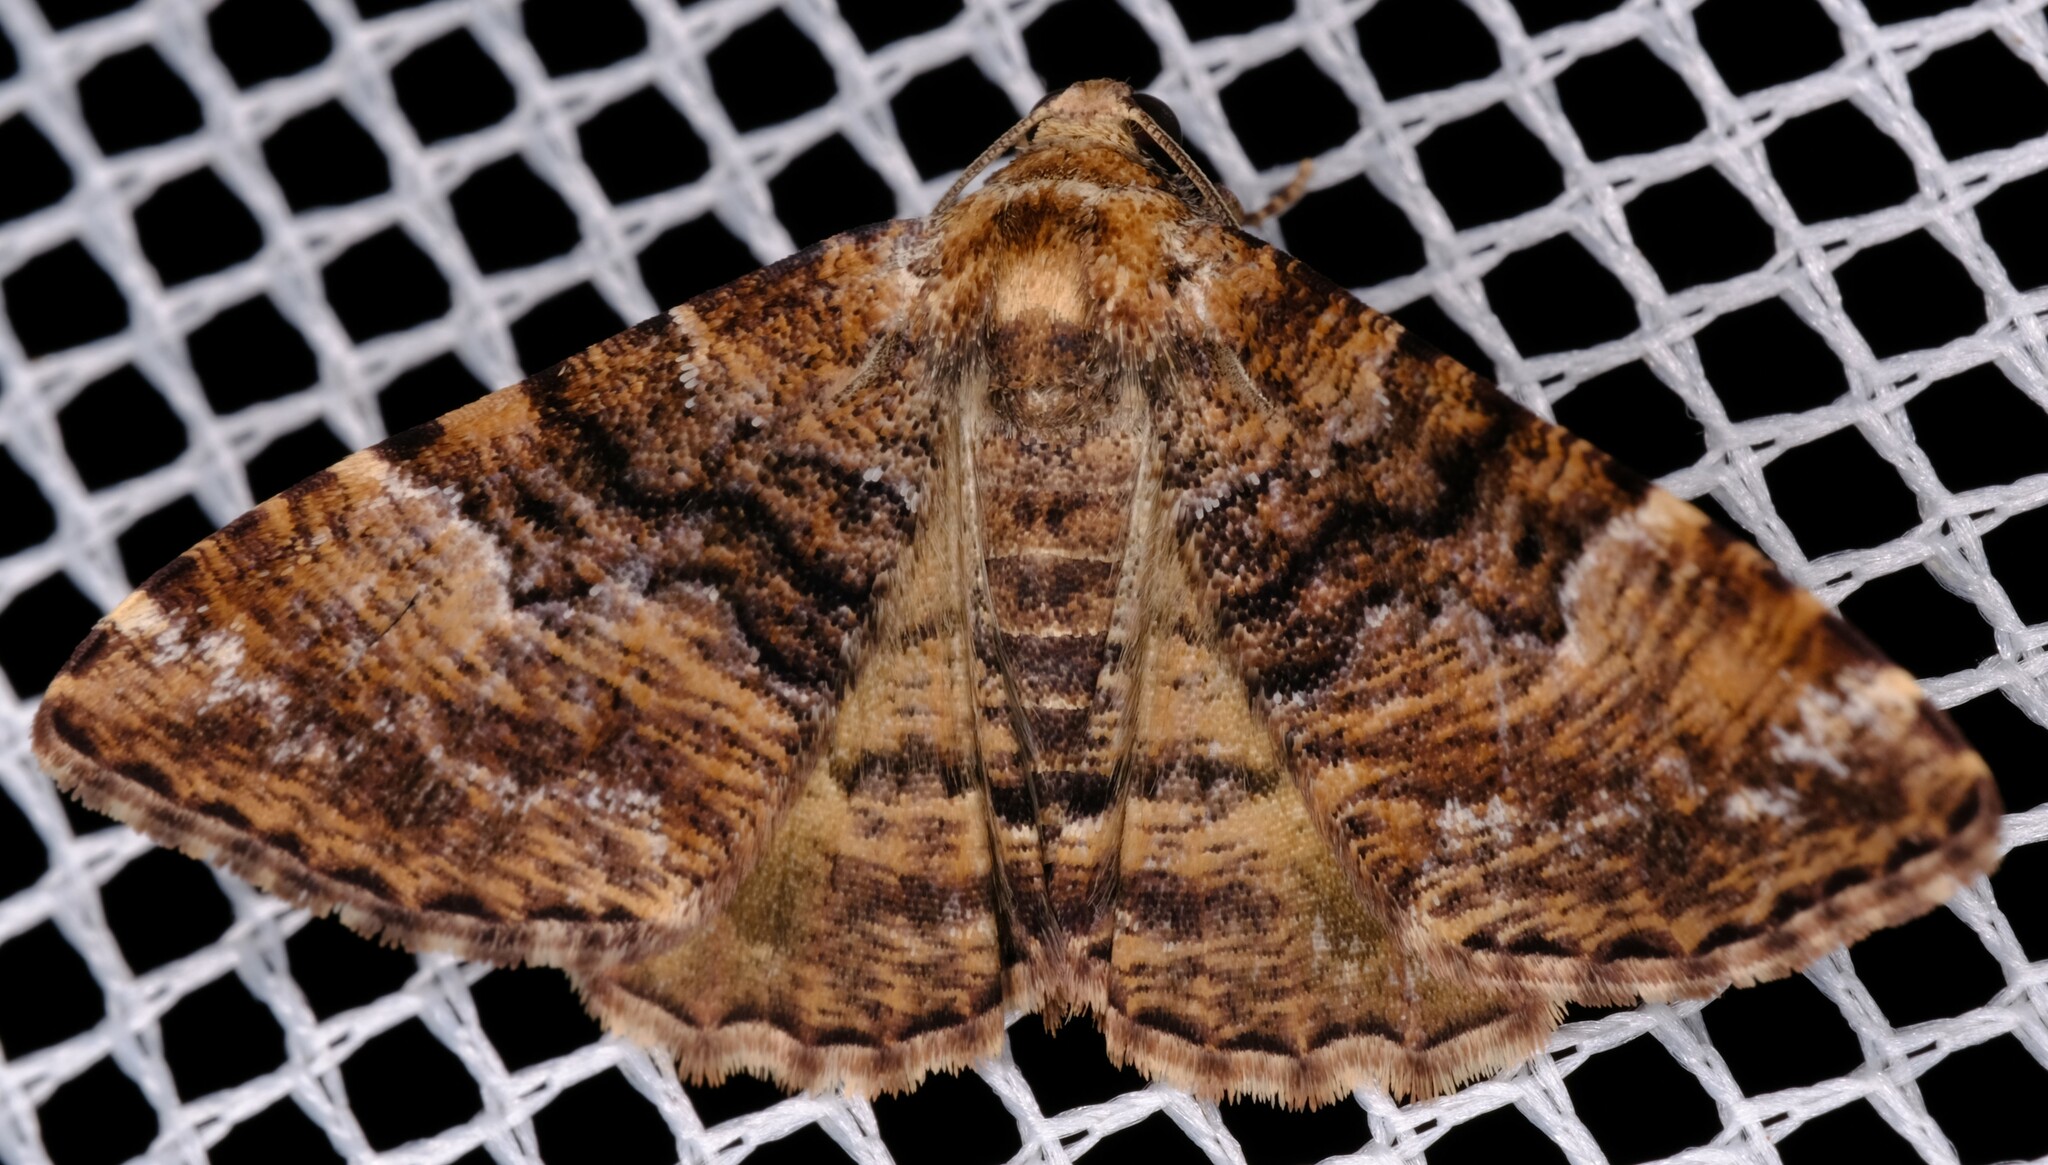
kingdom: Animalia
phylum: Arthropoda
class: Insecta
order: Lepidoptera
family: Geometridae
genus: Aporoctena
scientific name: Aporoctena scierodes
